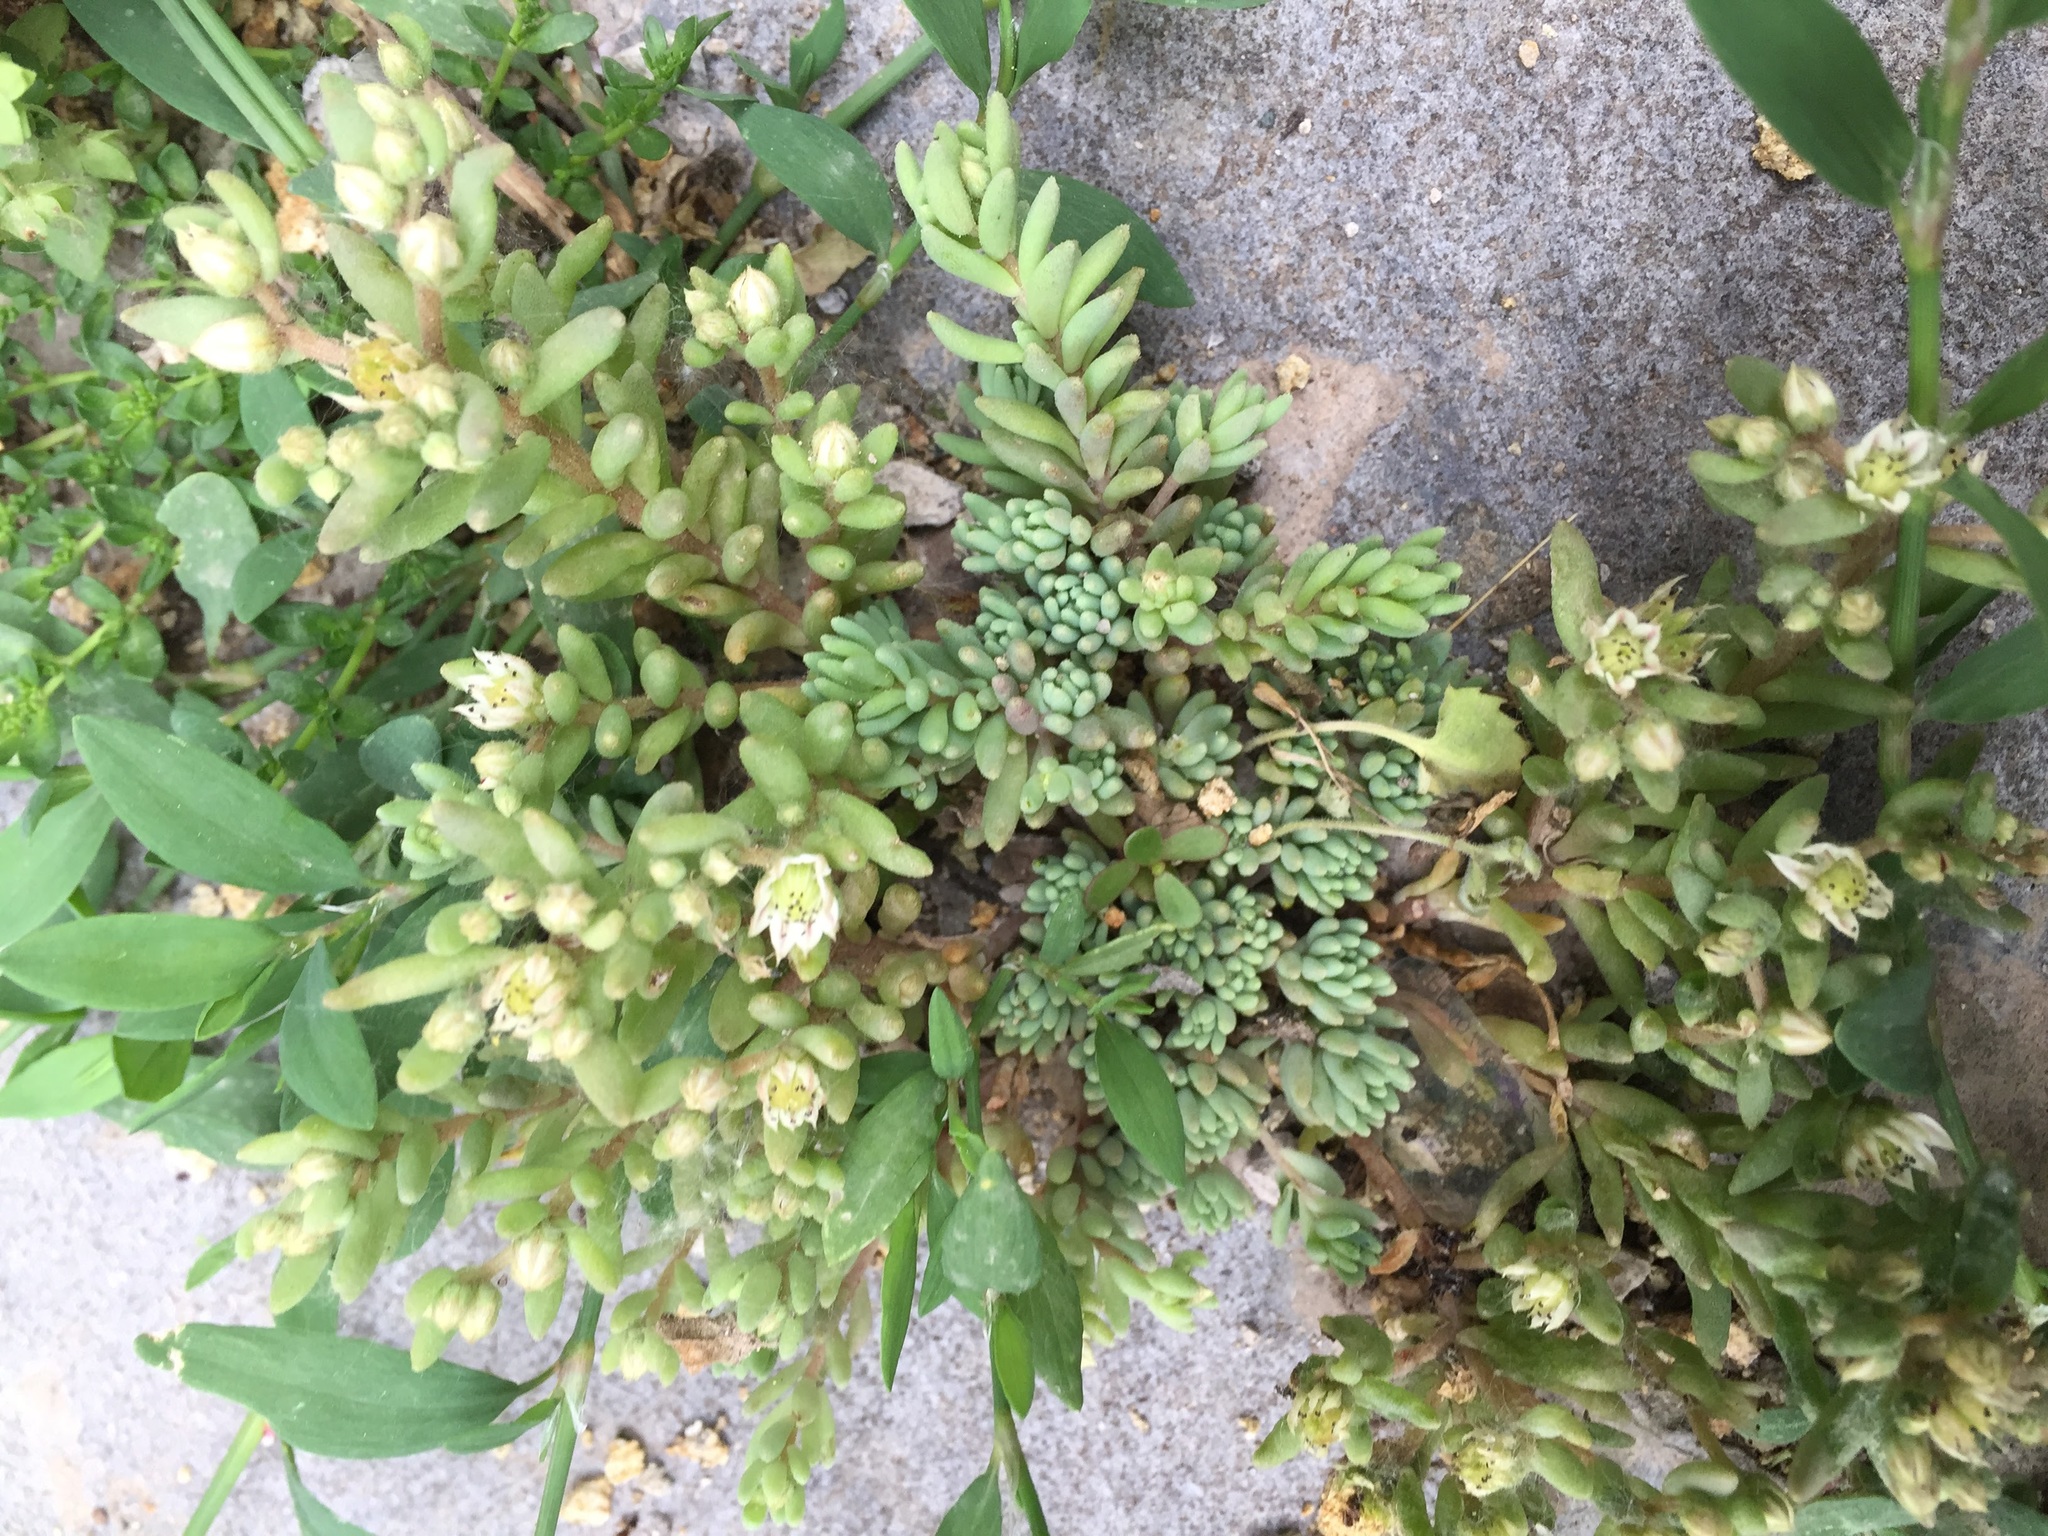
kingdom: Plantae
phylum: Tracheophyta
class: Magnoliopsida
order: Saxifragales
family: Crassulaceae
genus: Sedum
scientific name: Sedum hispanicum
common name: Spanish stonecrop
